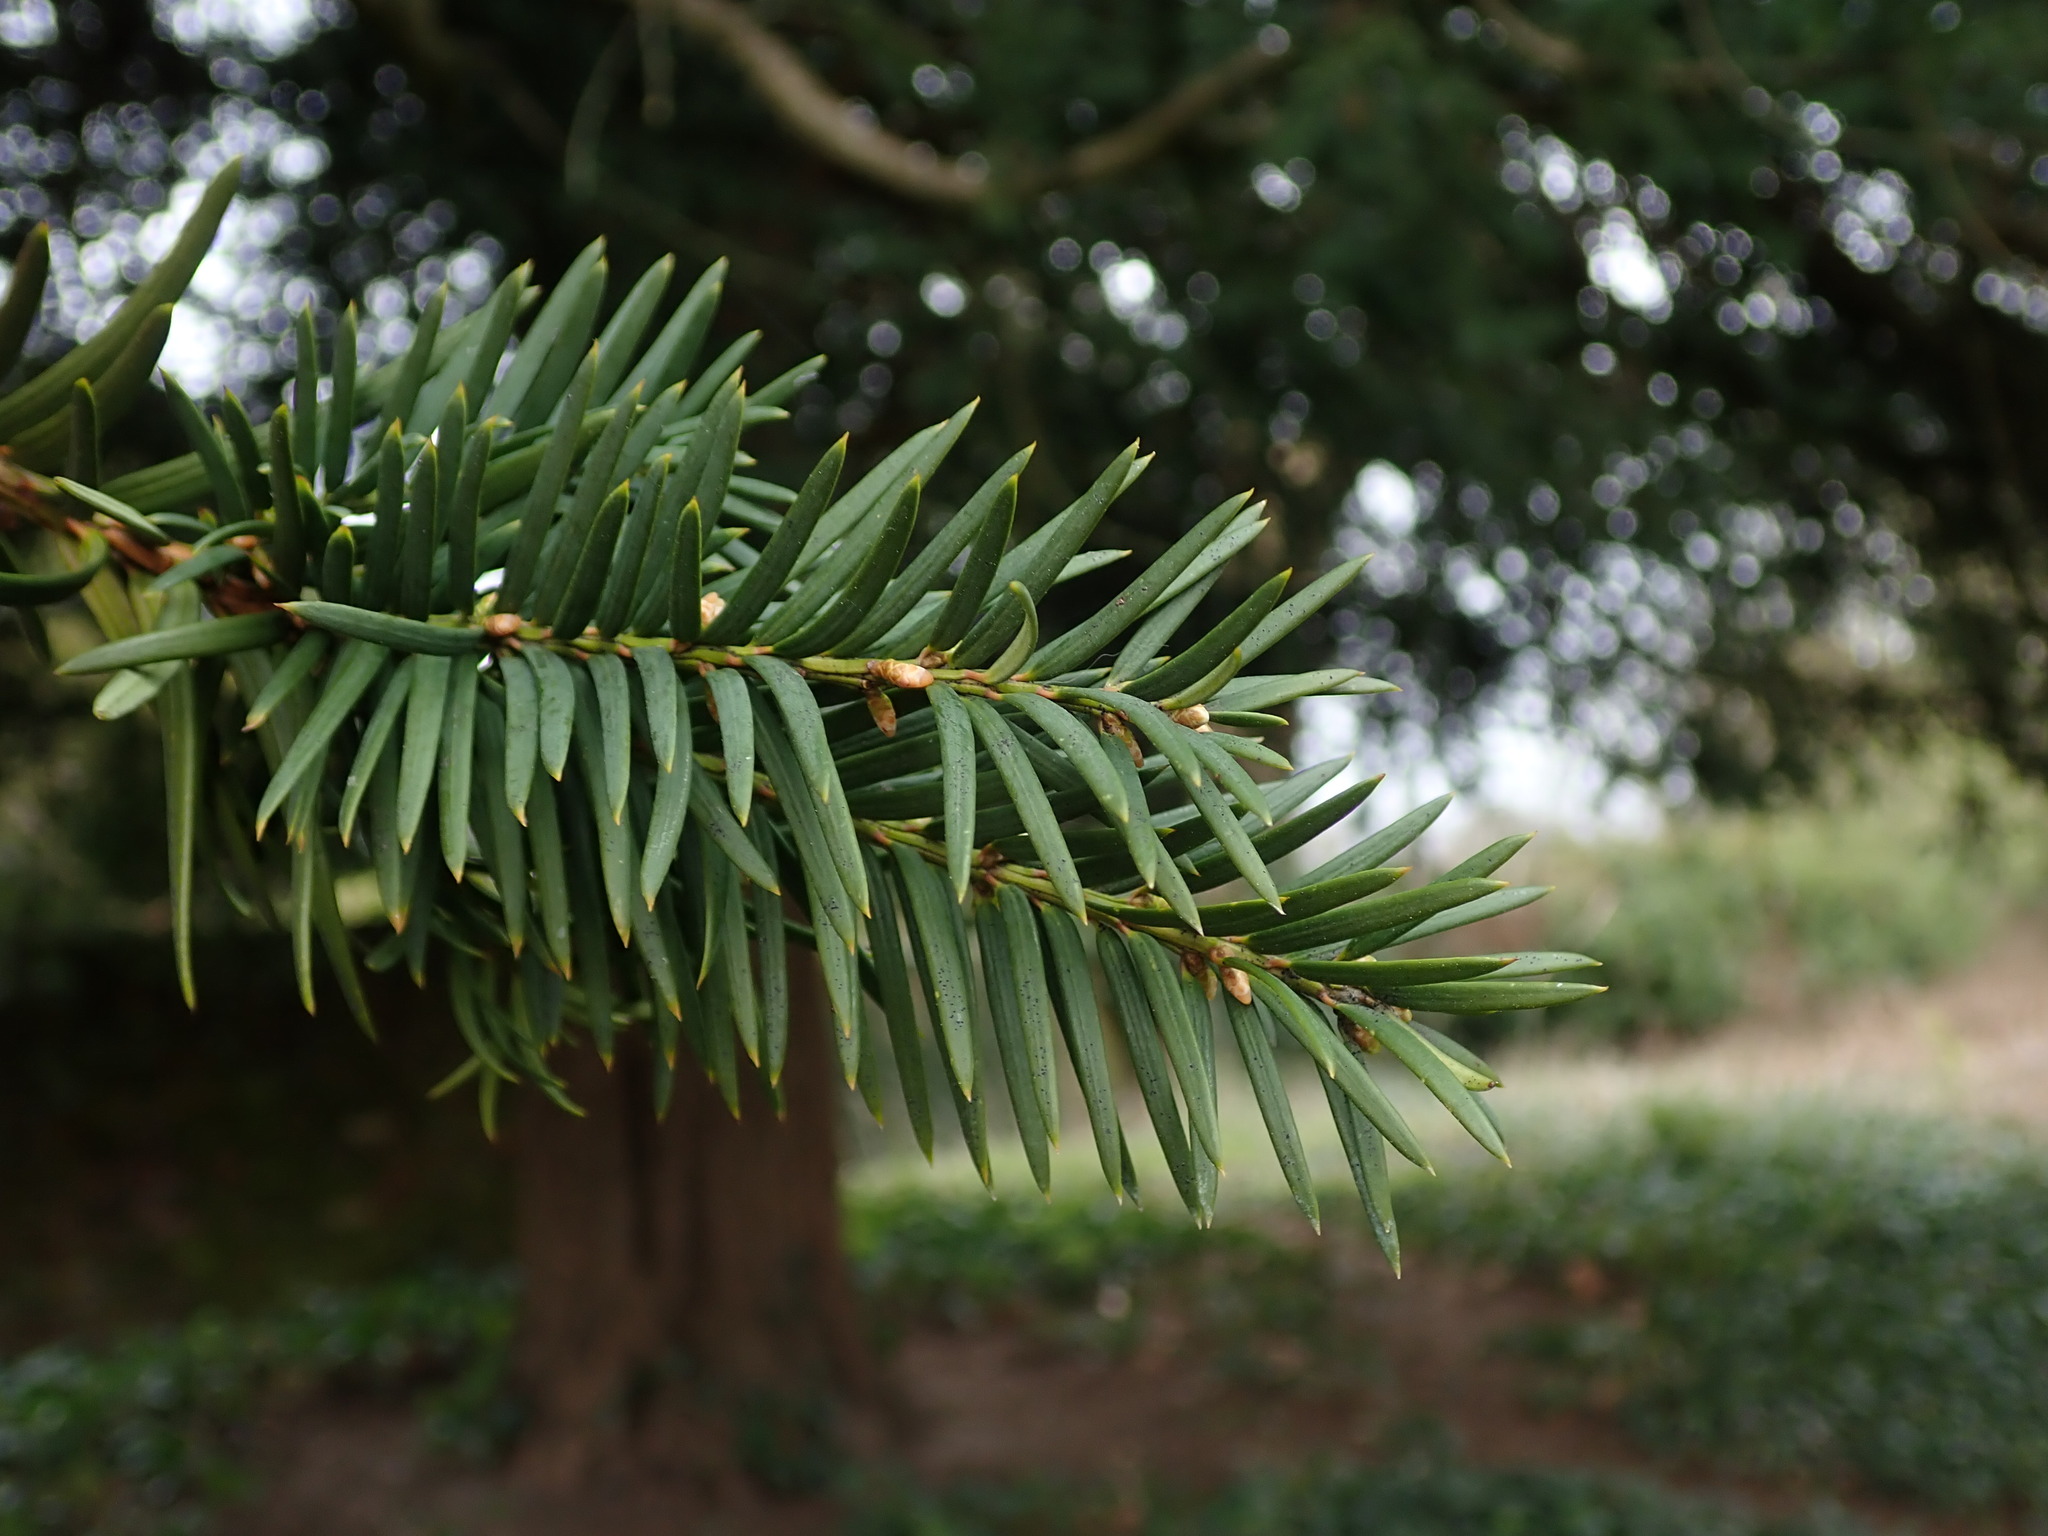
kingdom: Plantae
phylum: Tracheophyta
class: Pinopsida
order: Pinales
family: Taxaceae
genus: Taxus
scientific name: Taxus baccata
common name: Yew
